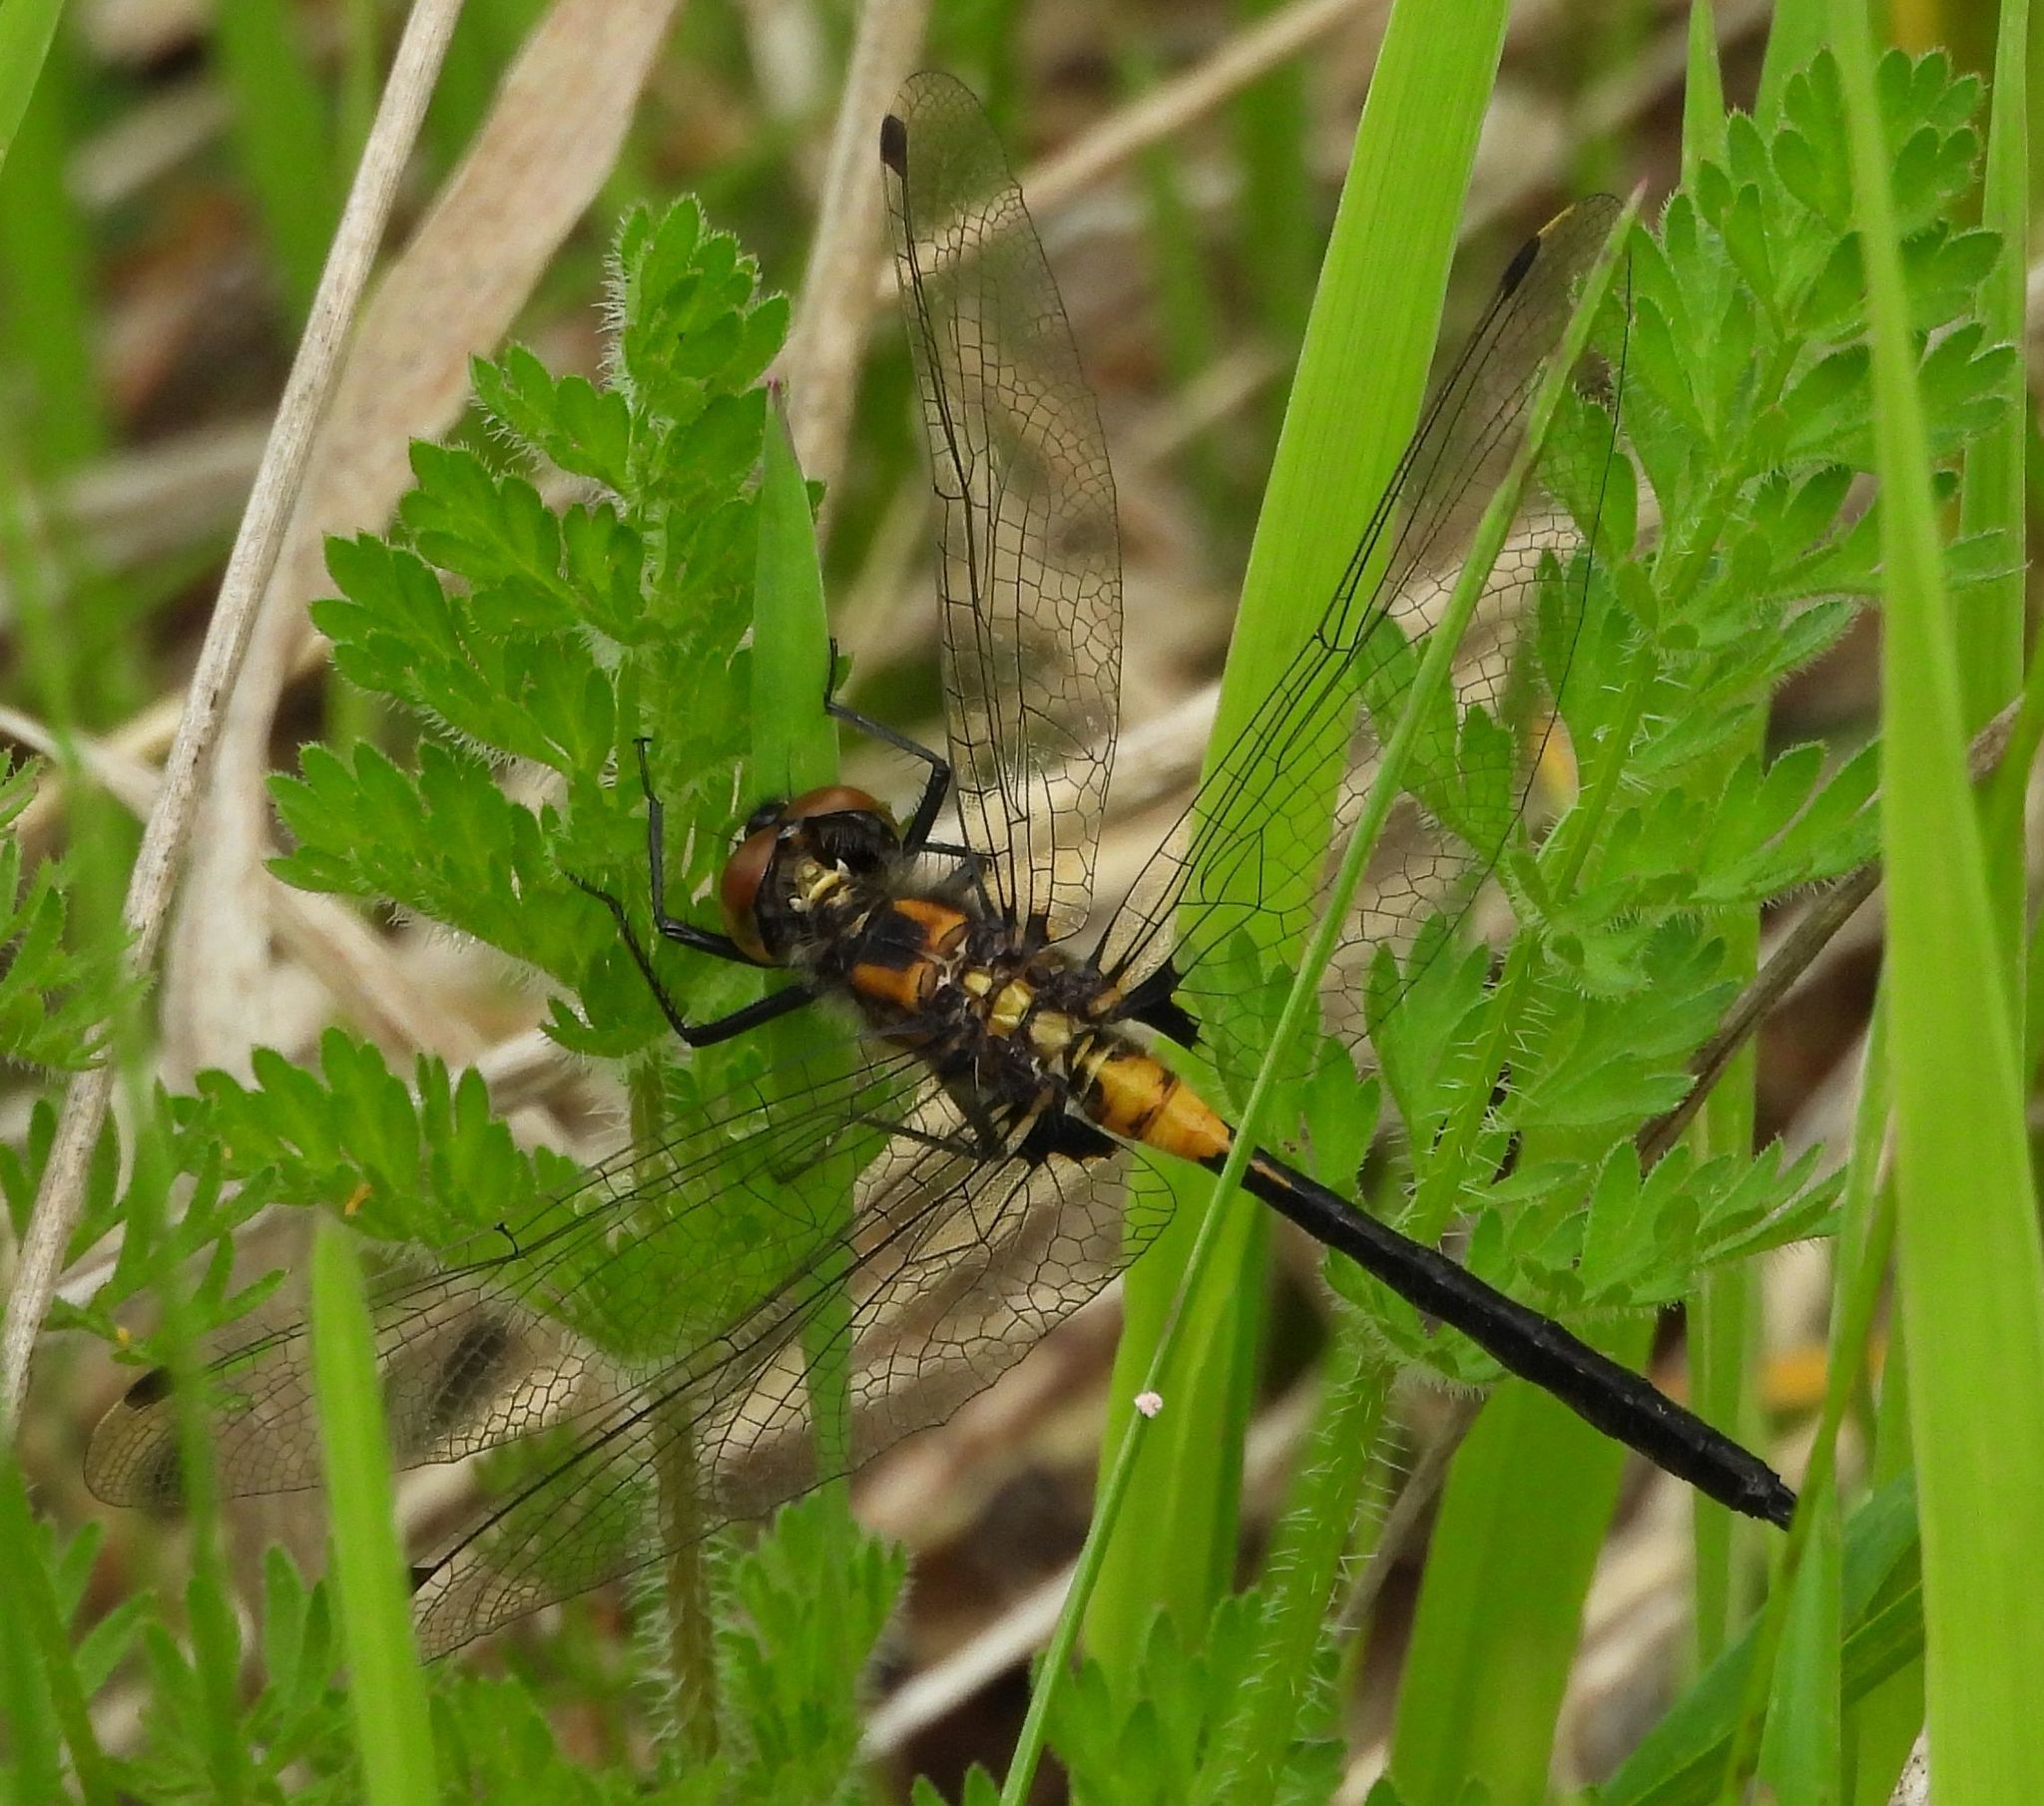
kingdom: Animalia
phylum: Arthropoda
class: Insecta
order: Odonata
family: Libellulidae
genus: Leucorrhinia
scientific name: Leucorrhinia proxima
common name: Belted whiteface
